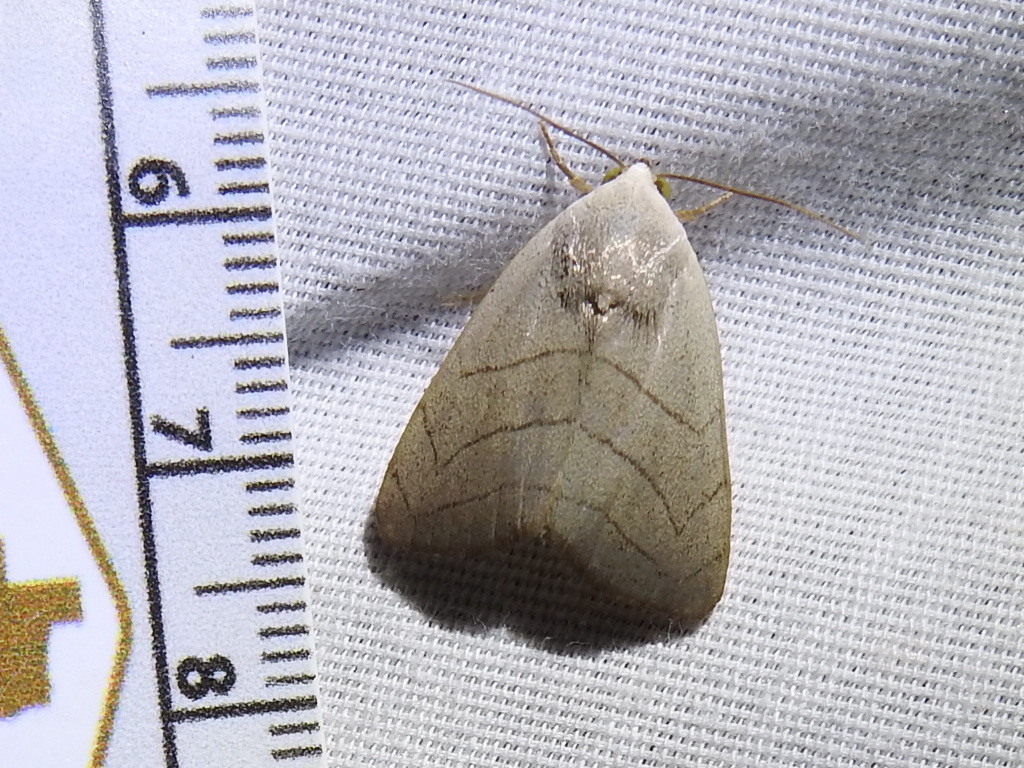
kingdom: Animalia
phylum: Arthropoda
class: Insecta
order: Lepidoptera
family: Noctuidae
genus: Bagisara
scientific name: Bagisara oula
